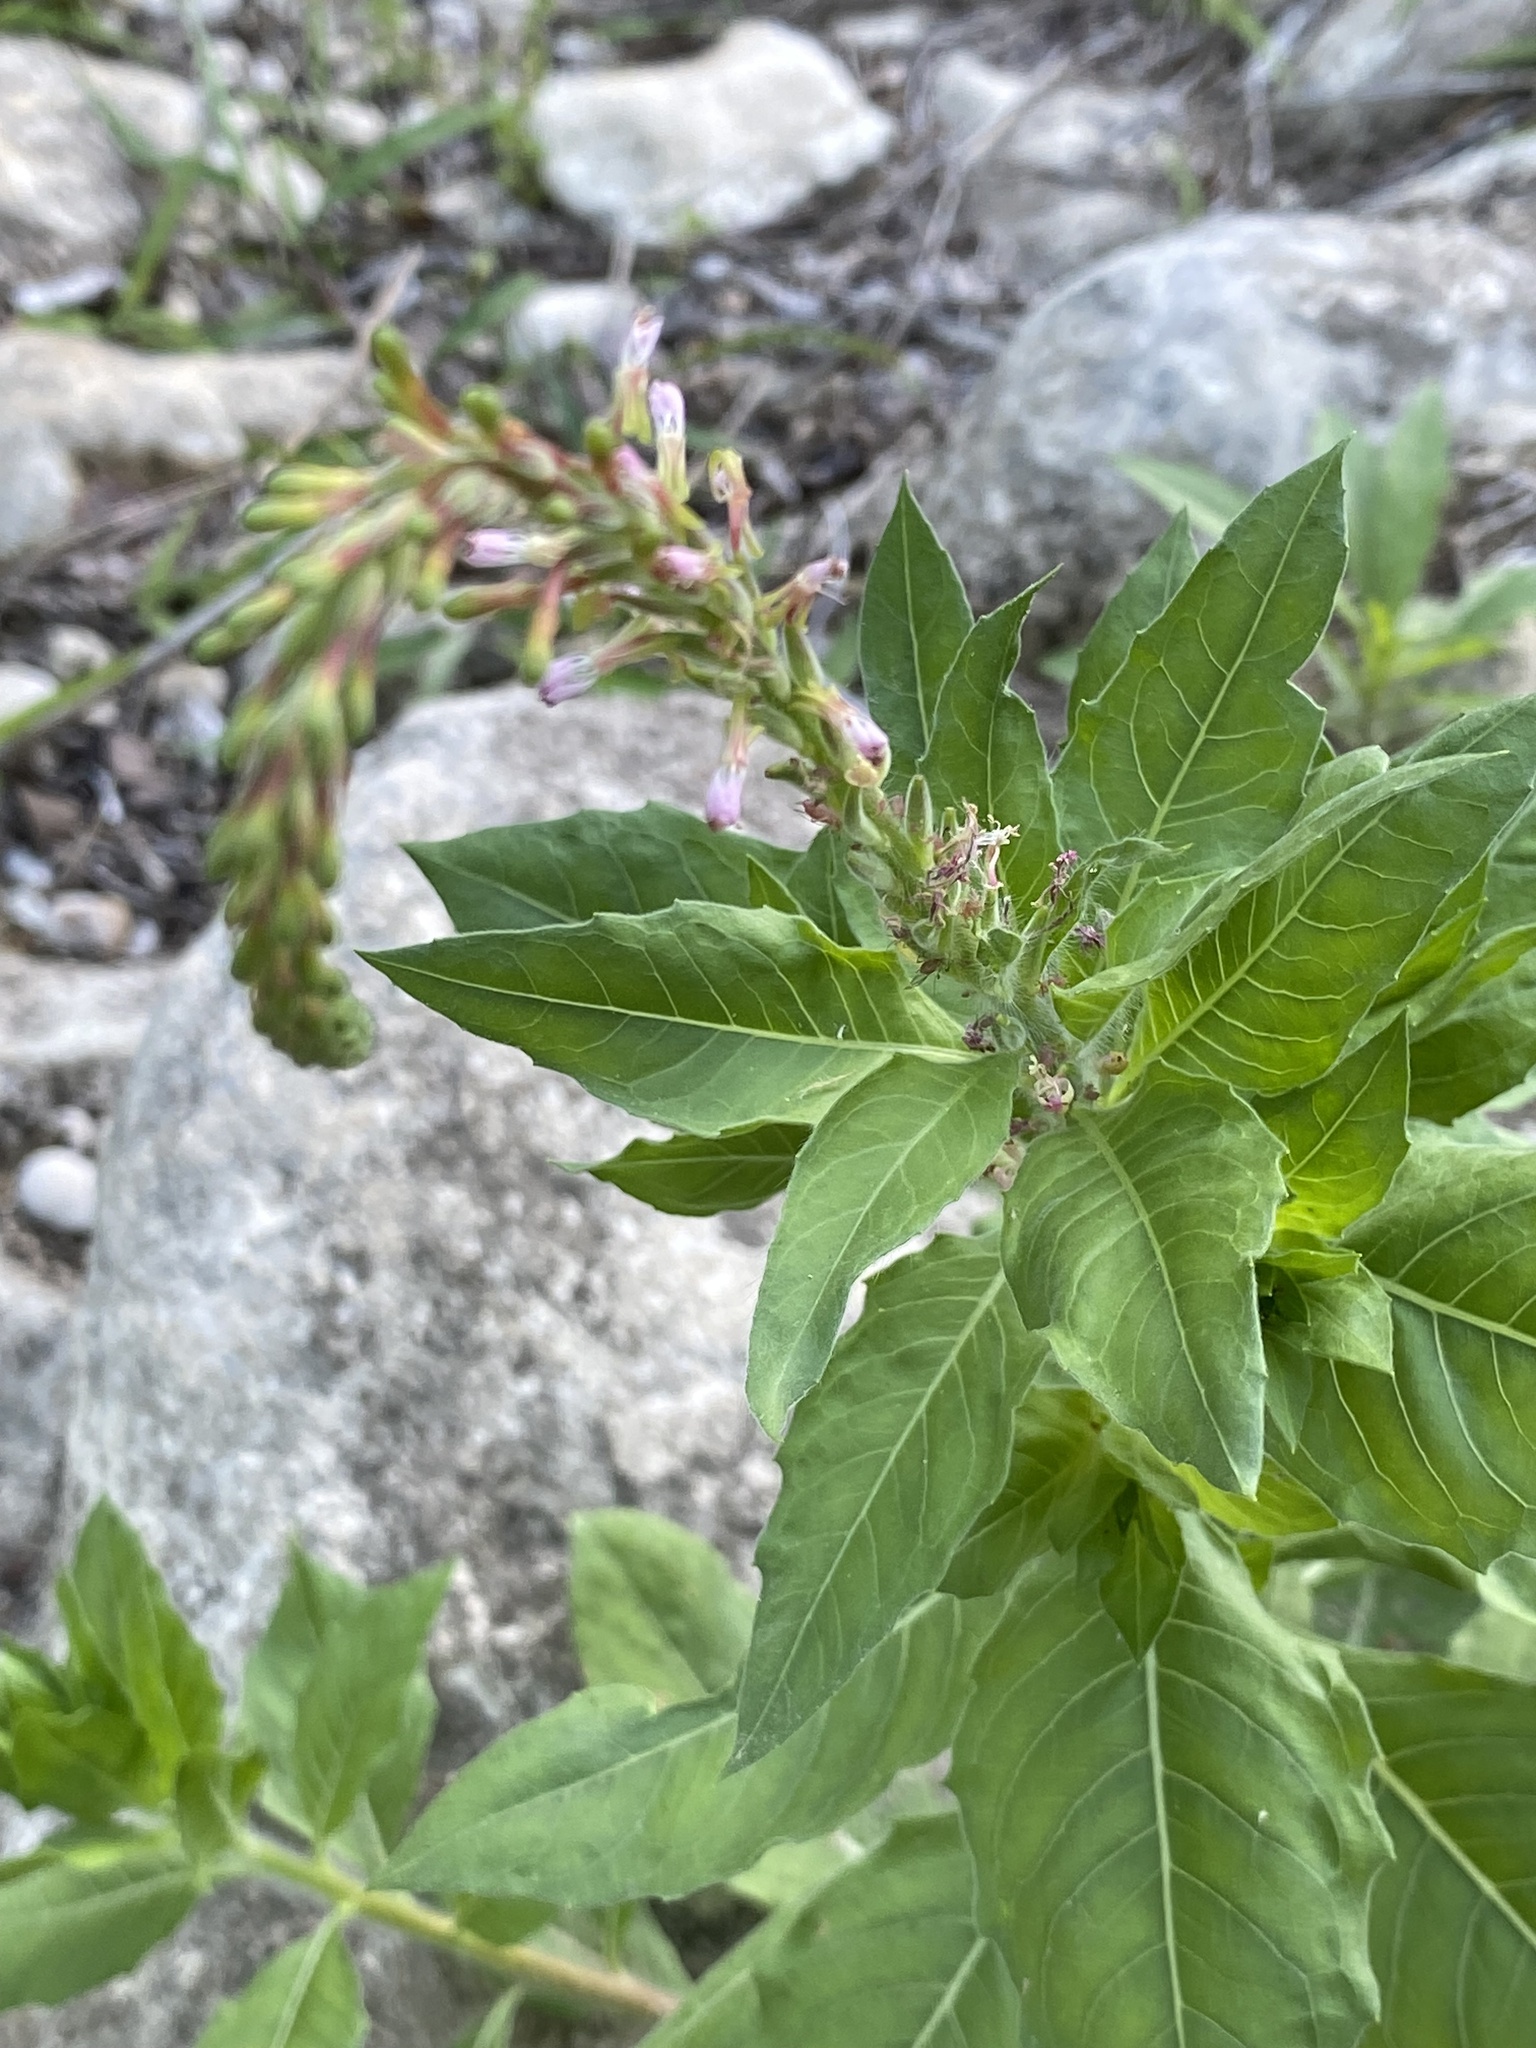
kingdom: Plantae
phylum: Tracheophyta
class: Magnoliopsida
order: Myrtales
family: Onagraceae
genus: Oenothera
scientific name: Oenothera curtiflora
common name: Velvetweed
